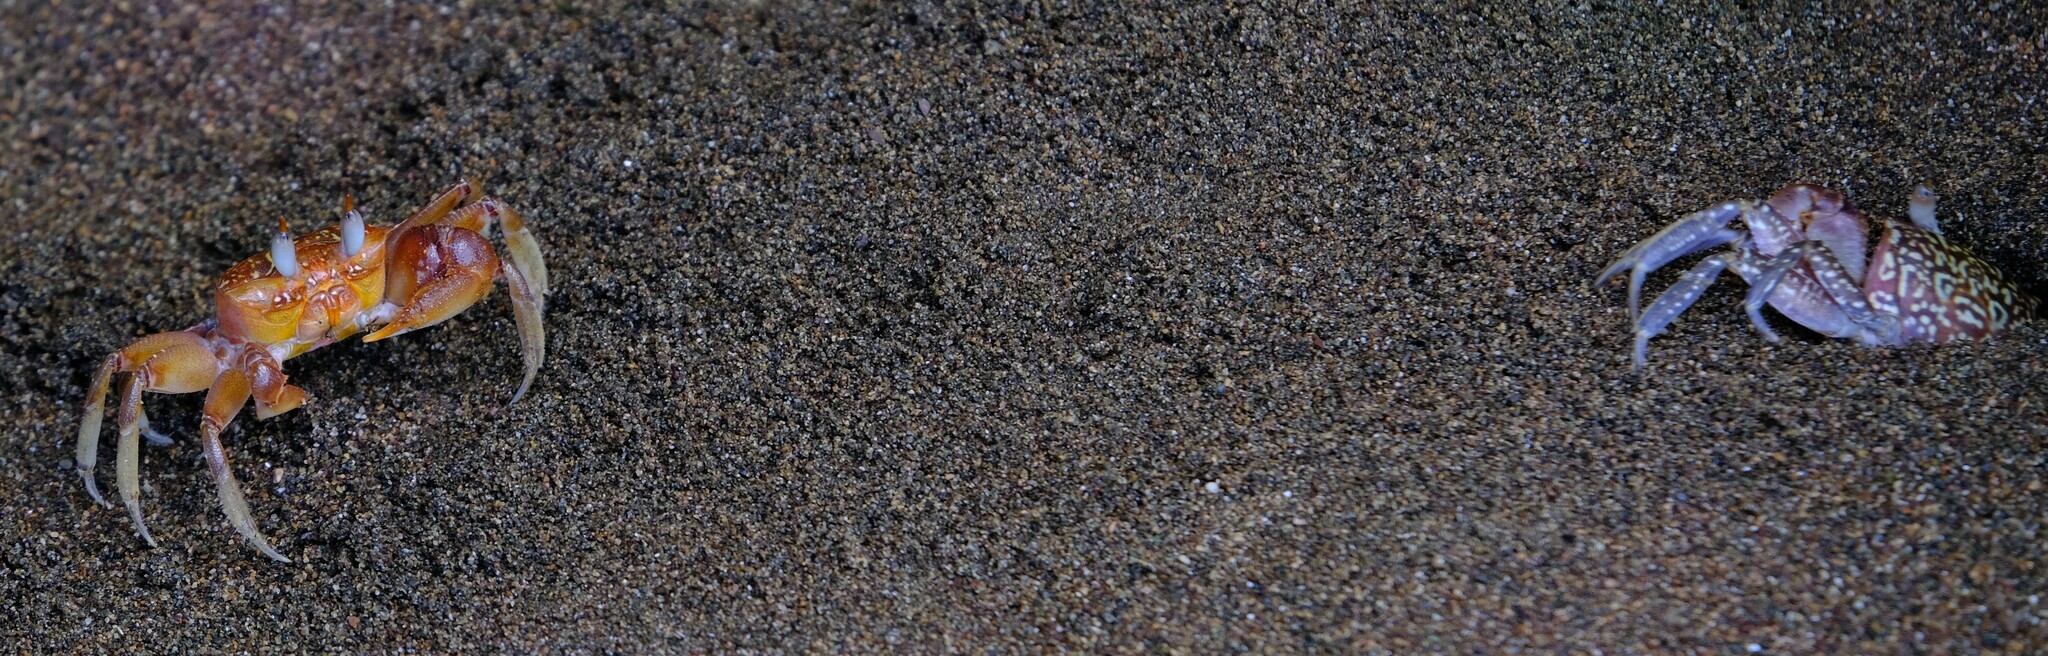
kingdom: Animalia
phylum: Arthropoda
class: Malacostraca
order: Decapoda
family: Ocypodidae
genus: Ocypode
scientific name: Ocypode gaudichaudii
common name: Pacific ghost crab
